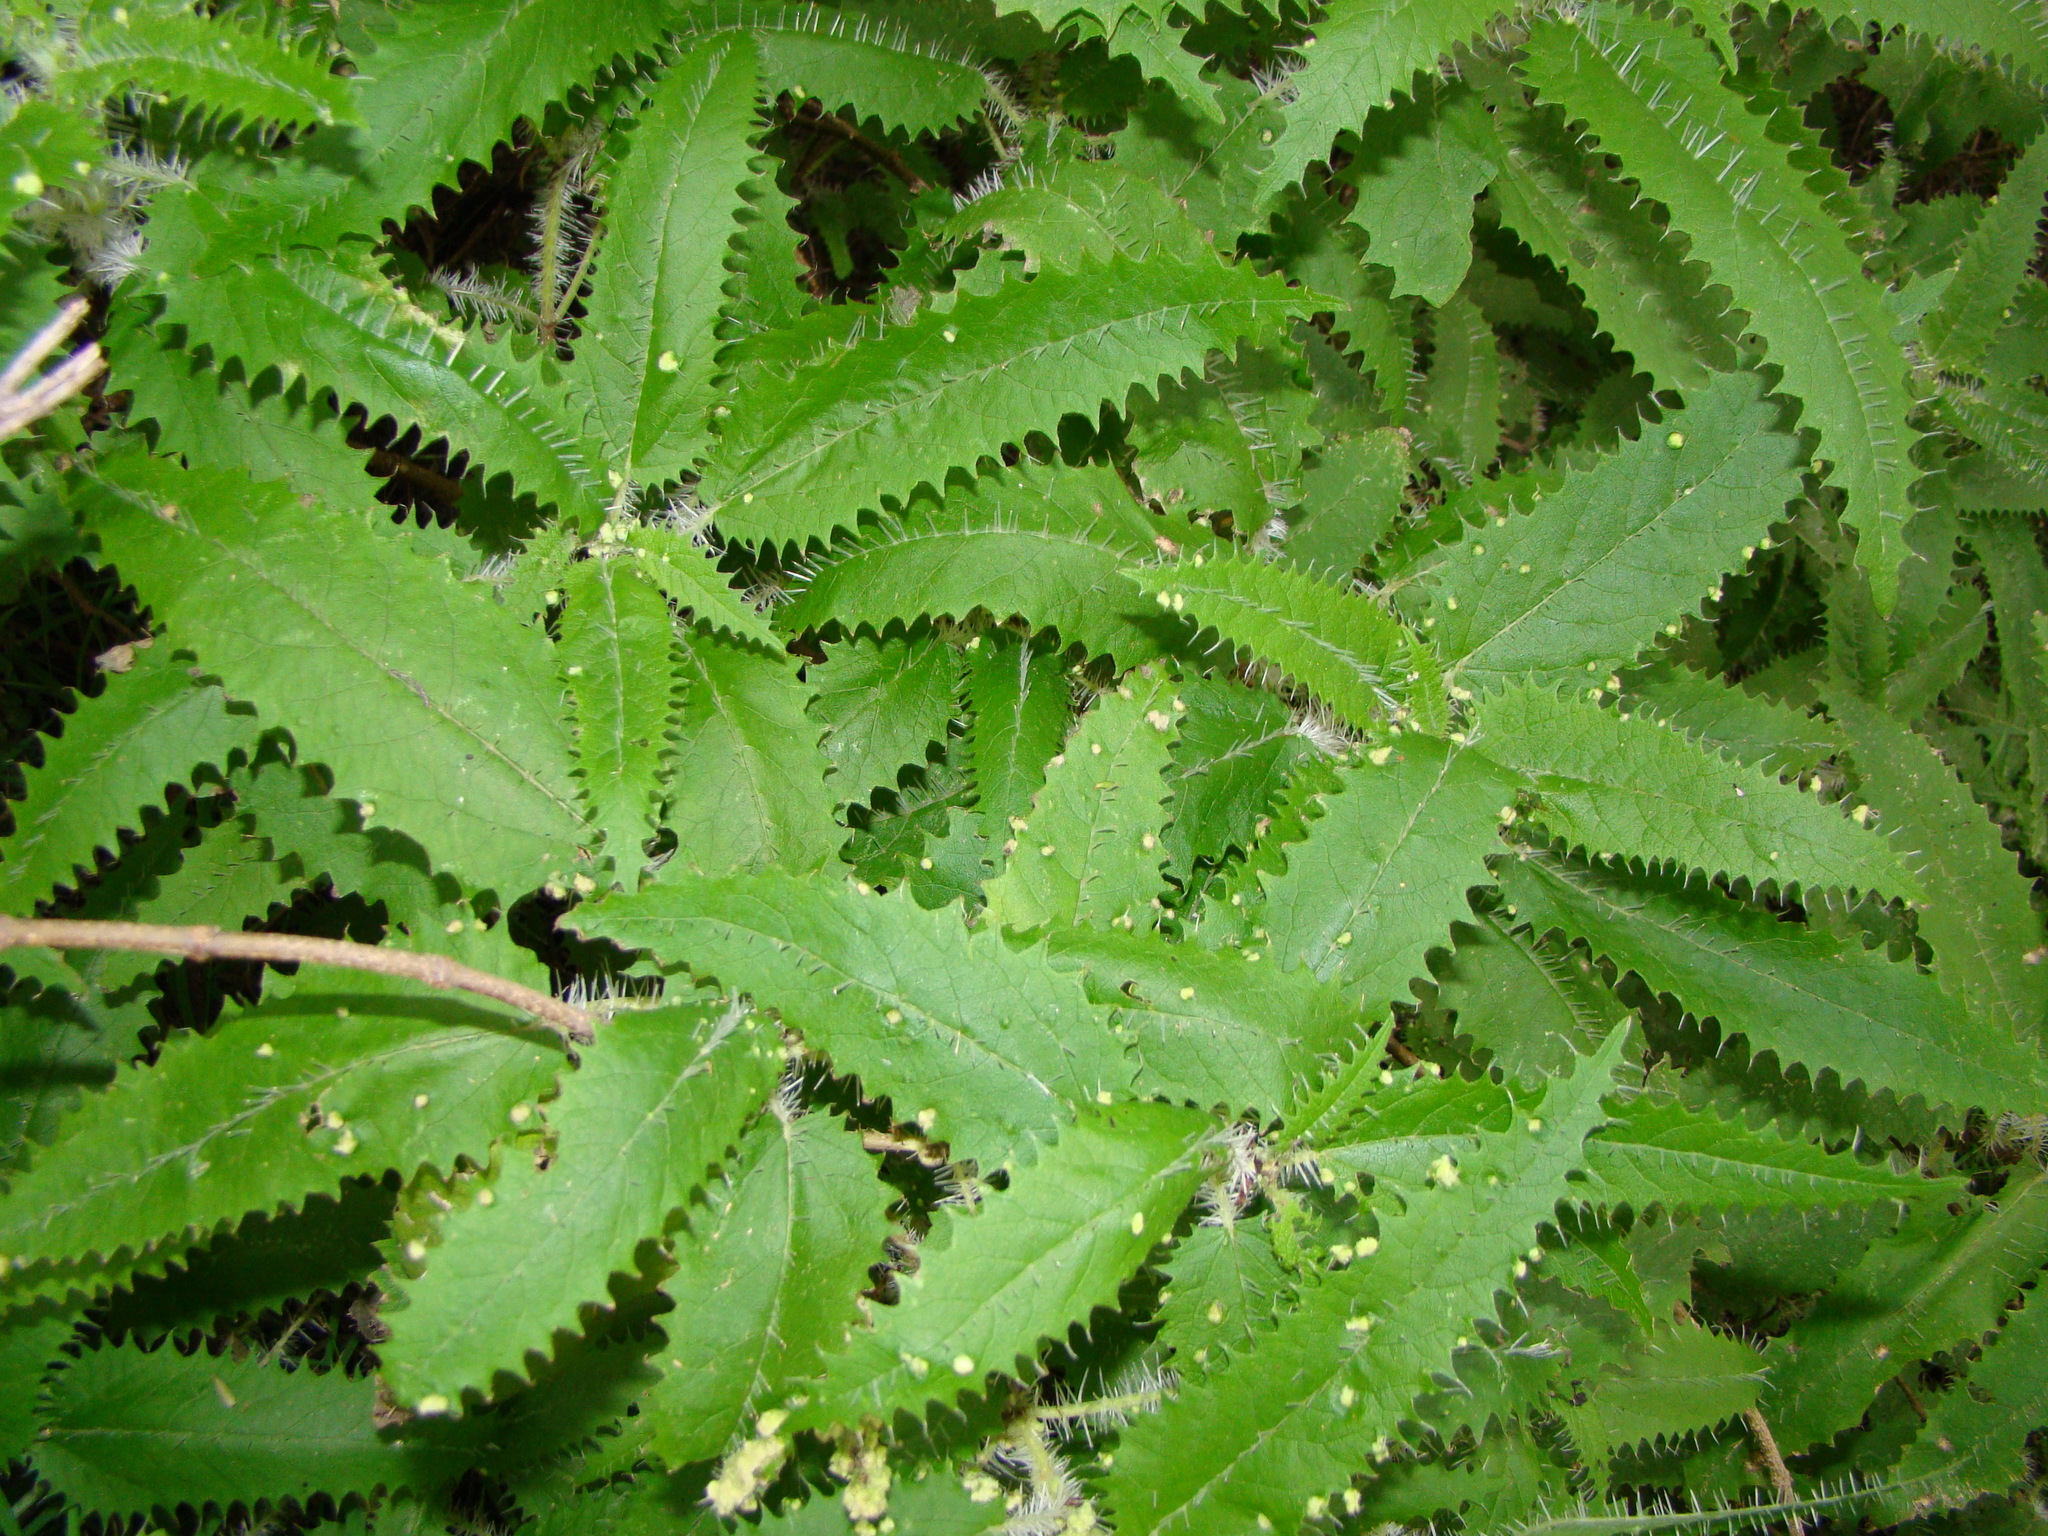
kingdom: Plantae
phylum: Tracheophyta
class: Magnoliopsida
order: Rosales
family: Urticaceae
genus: Urtica
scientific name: Urtica ferox
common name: Tree nettle
